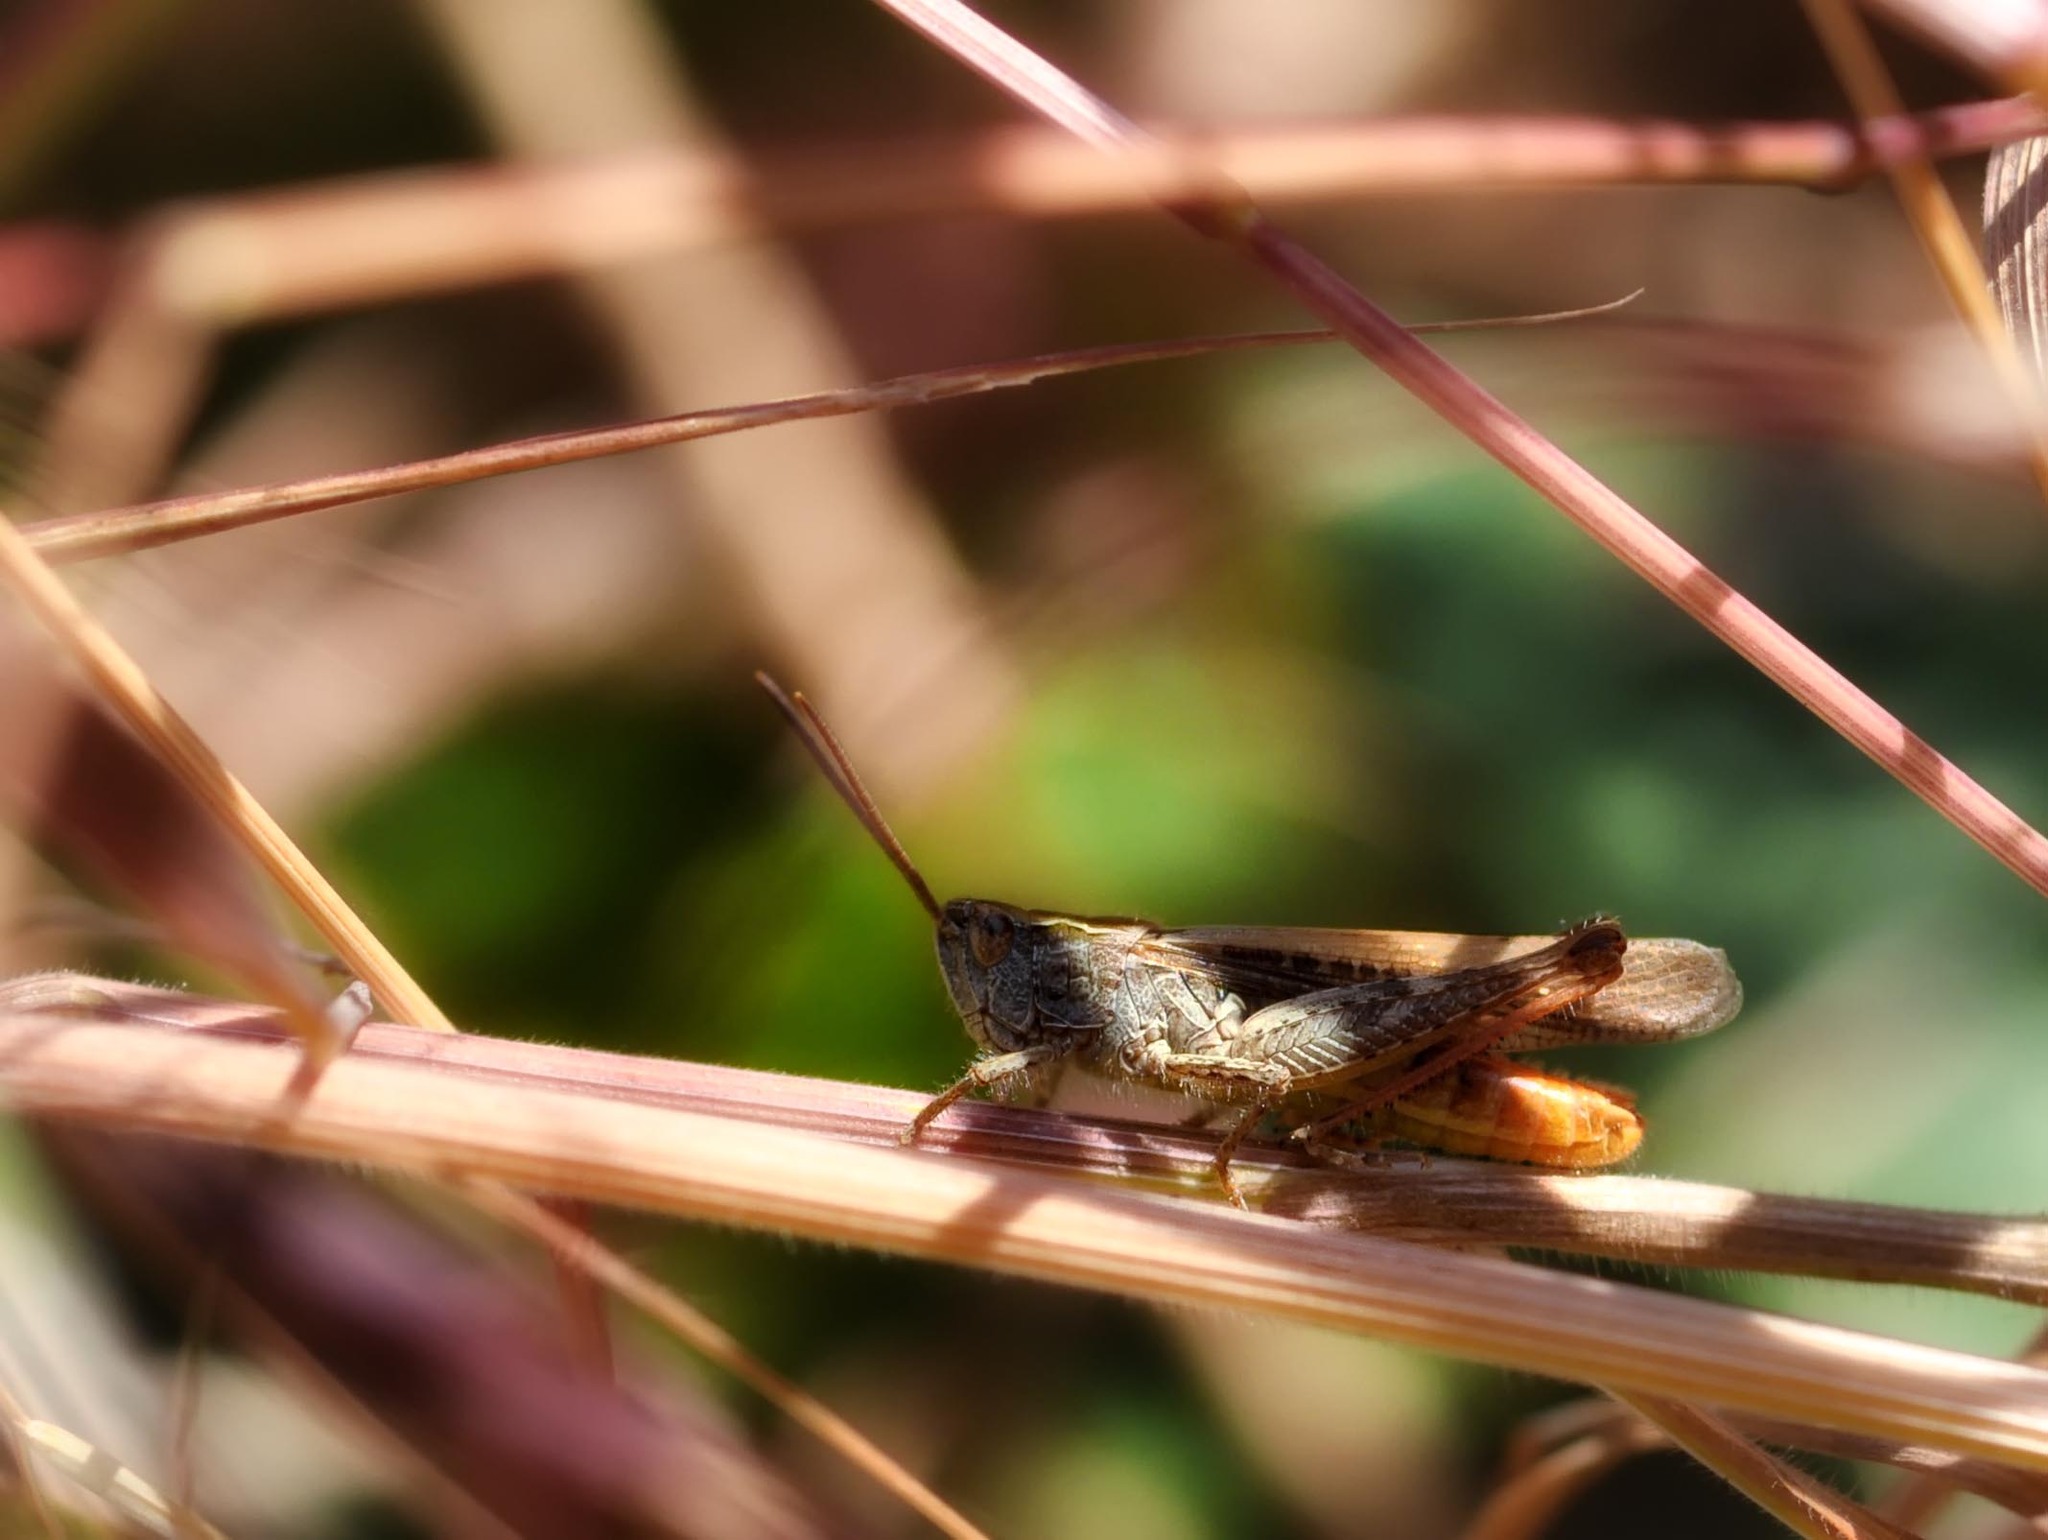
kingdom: Animalia
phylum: Arthropoda
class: Insecta
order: Orthoptera
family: Acrididae
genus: Chorthippus
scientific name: Chorthippus brunneus
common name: Field grasshopper
